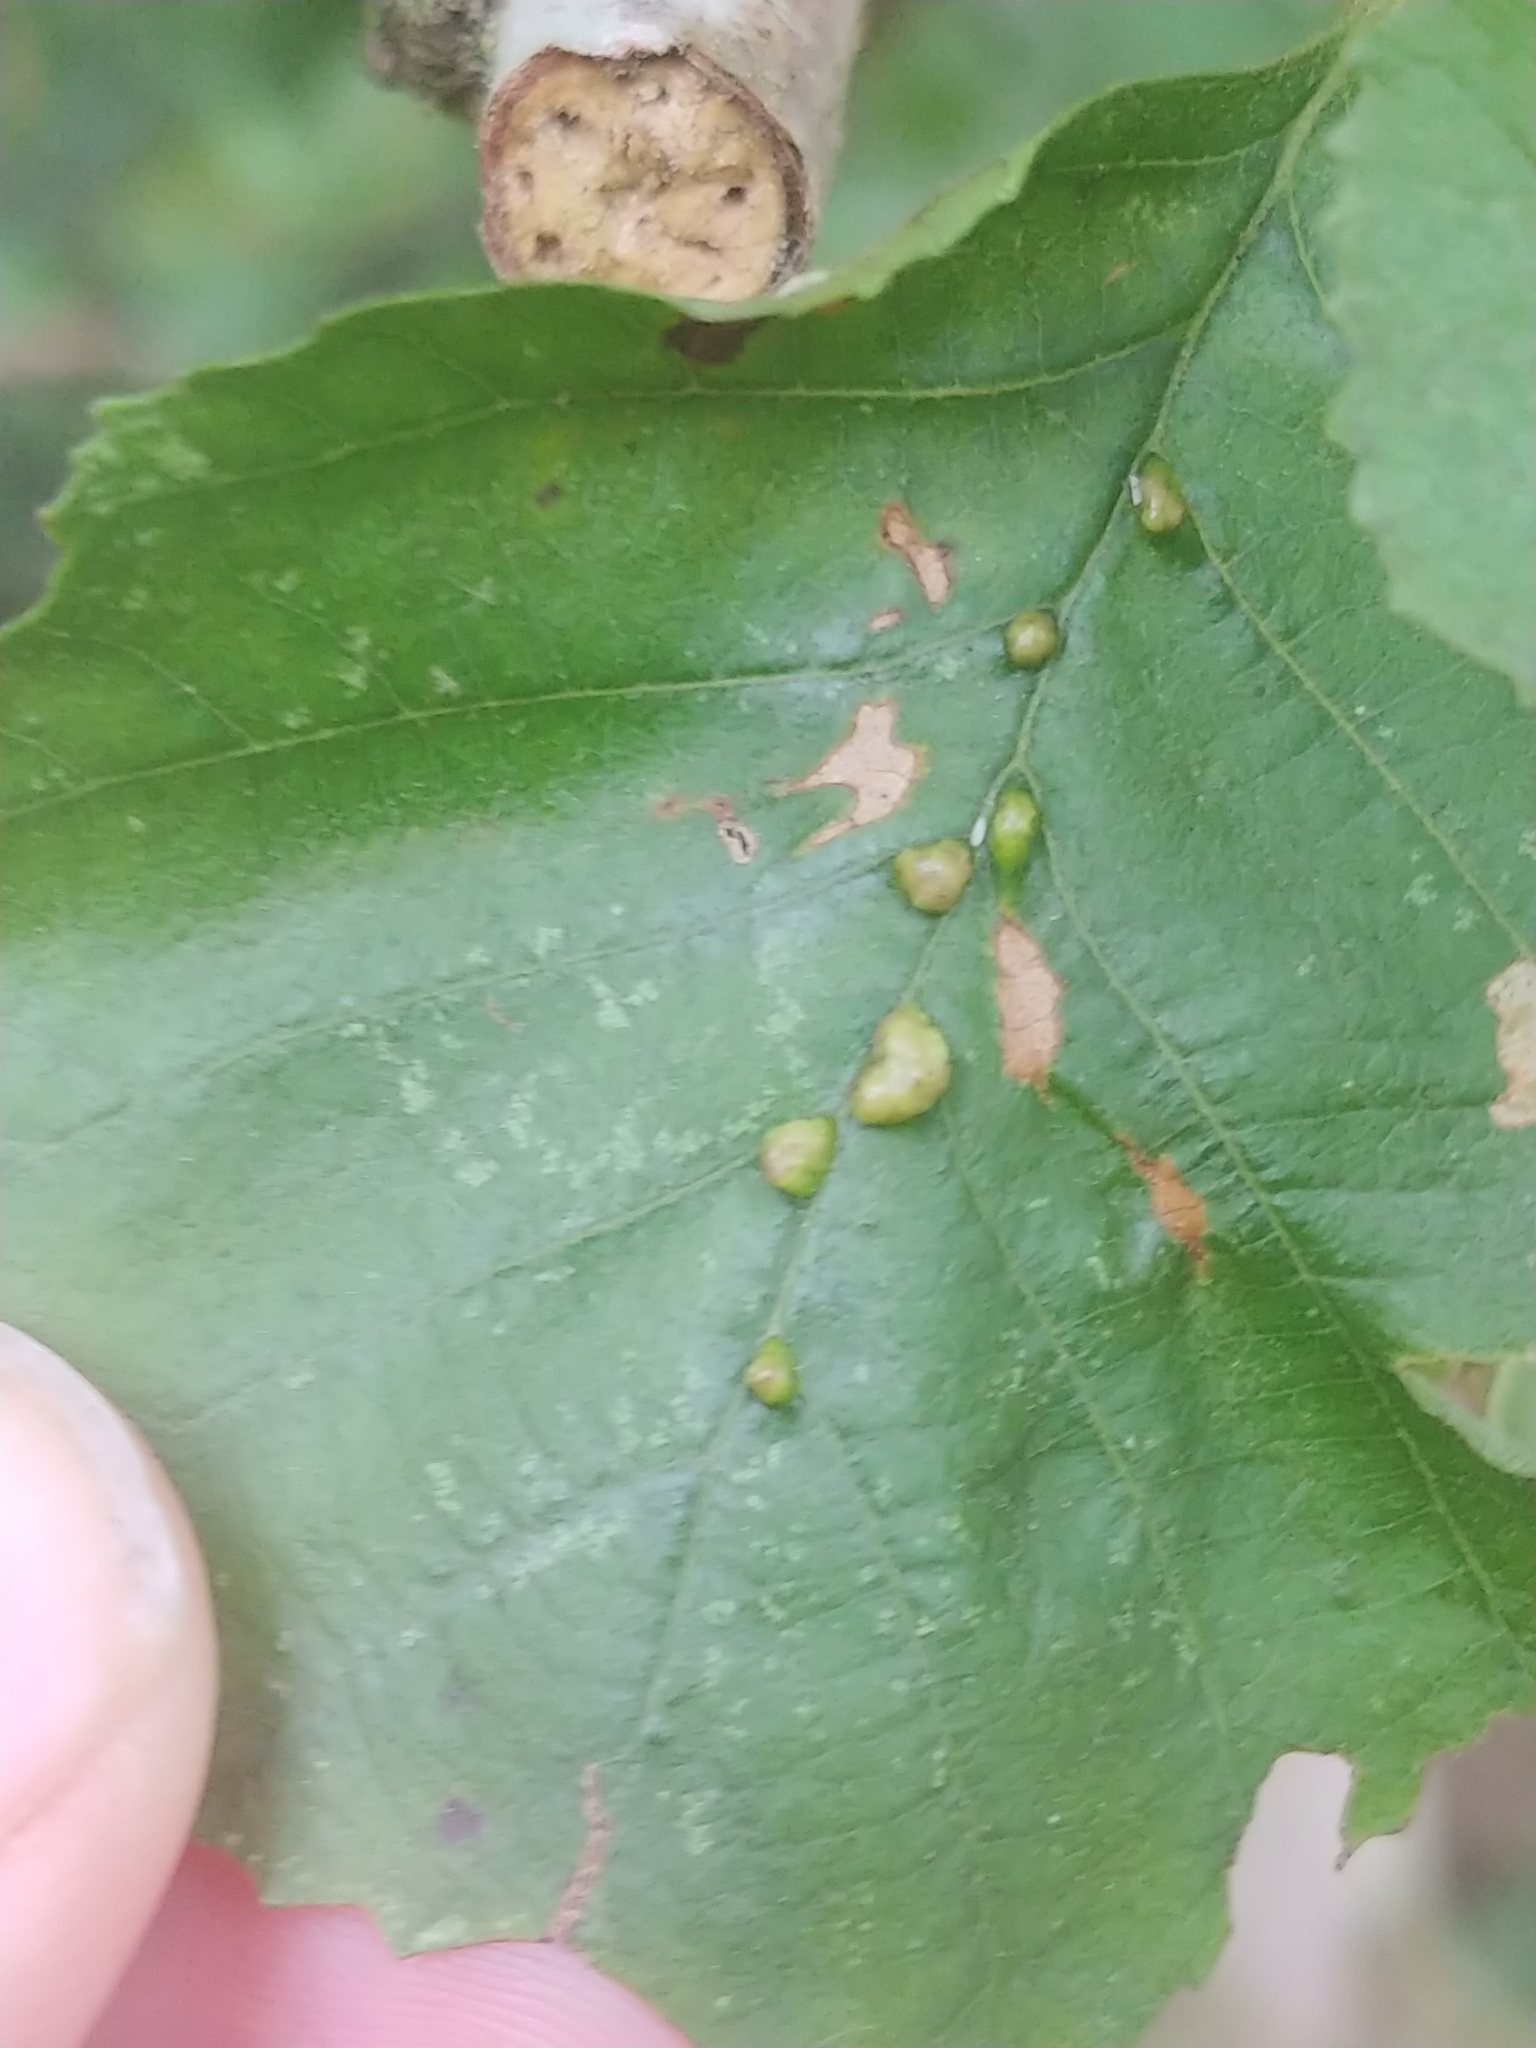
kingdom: Animalia
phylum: Arthropoda
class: Arachnida
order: Trombidiformes
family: Eriophyidae
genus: Eriophyes
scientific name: Eriophyes inangulis
